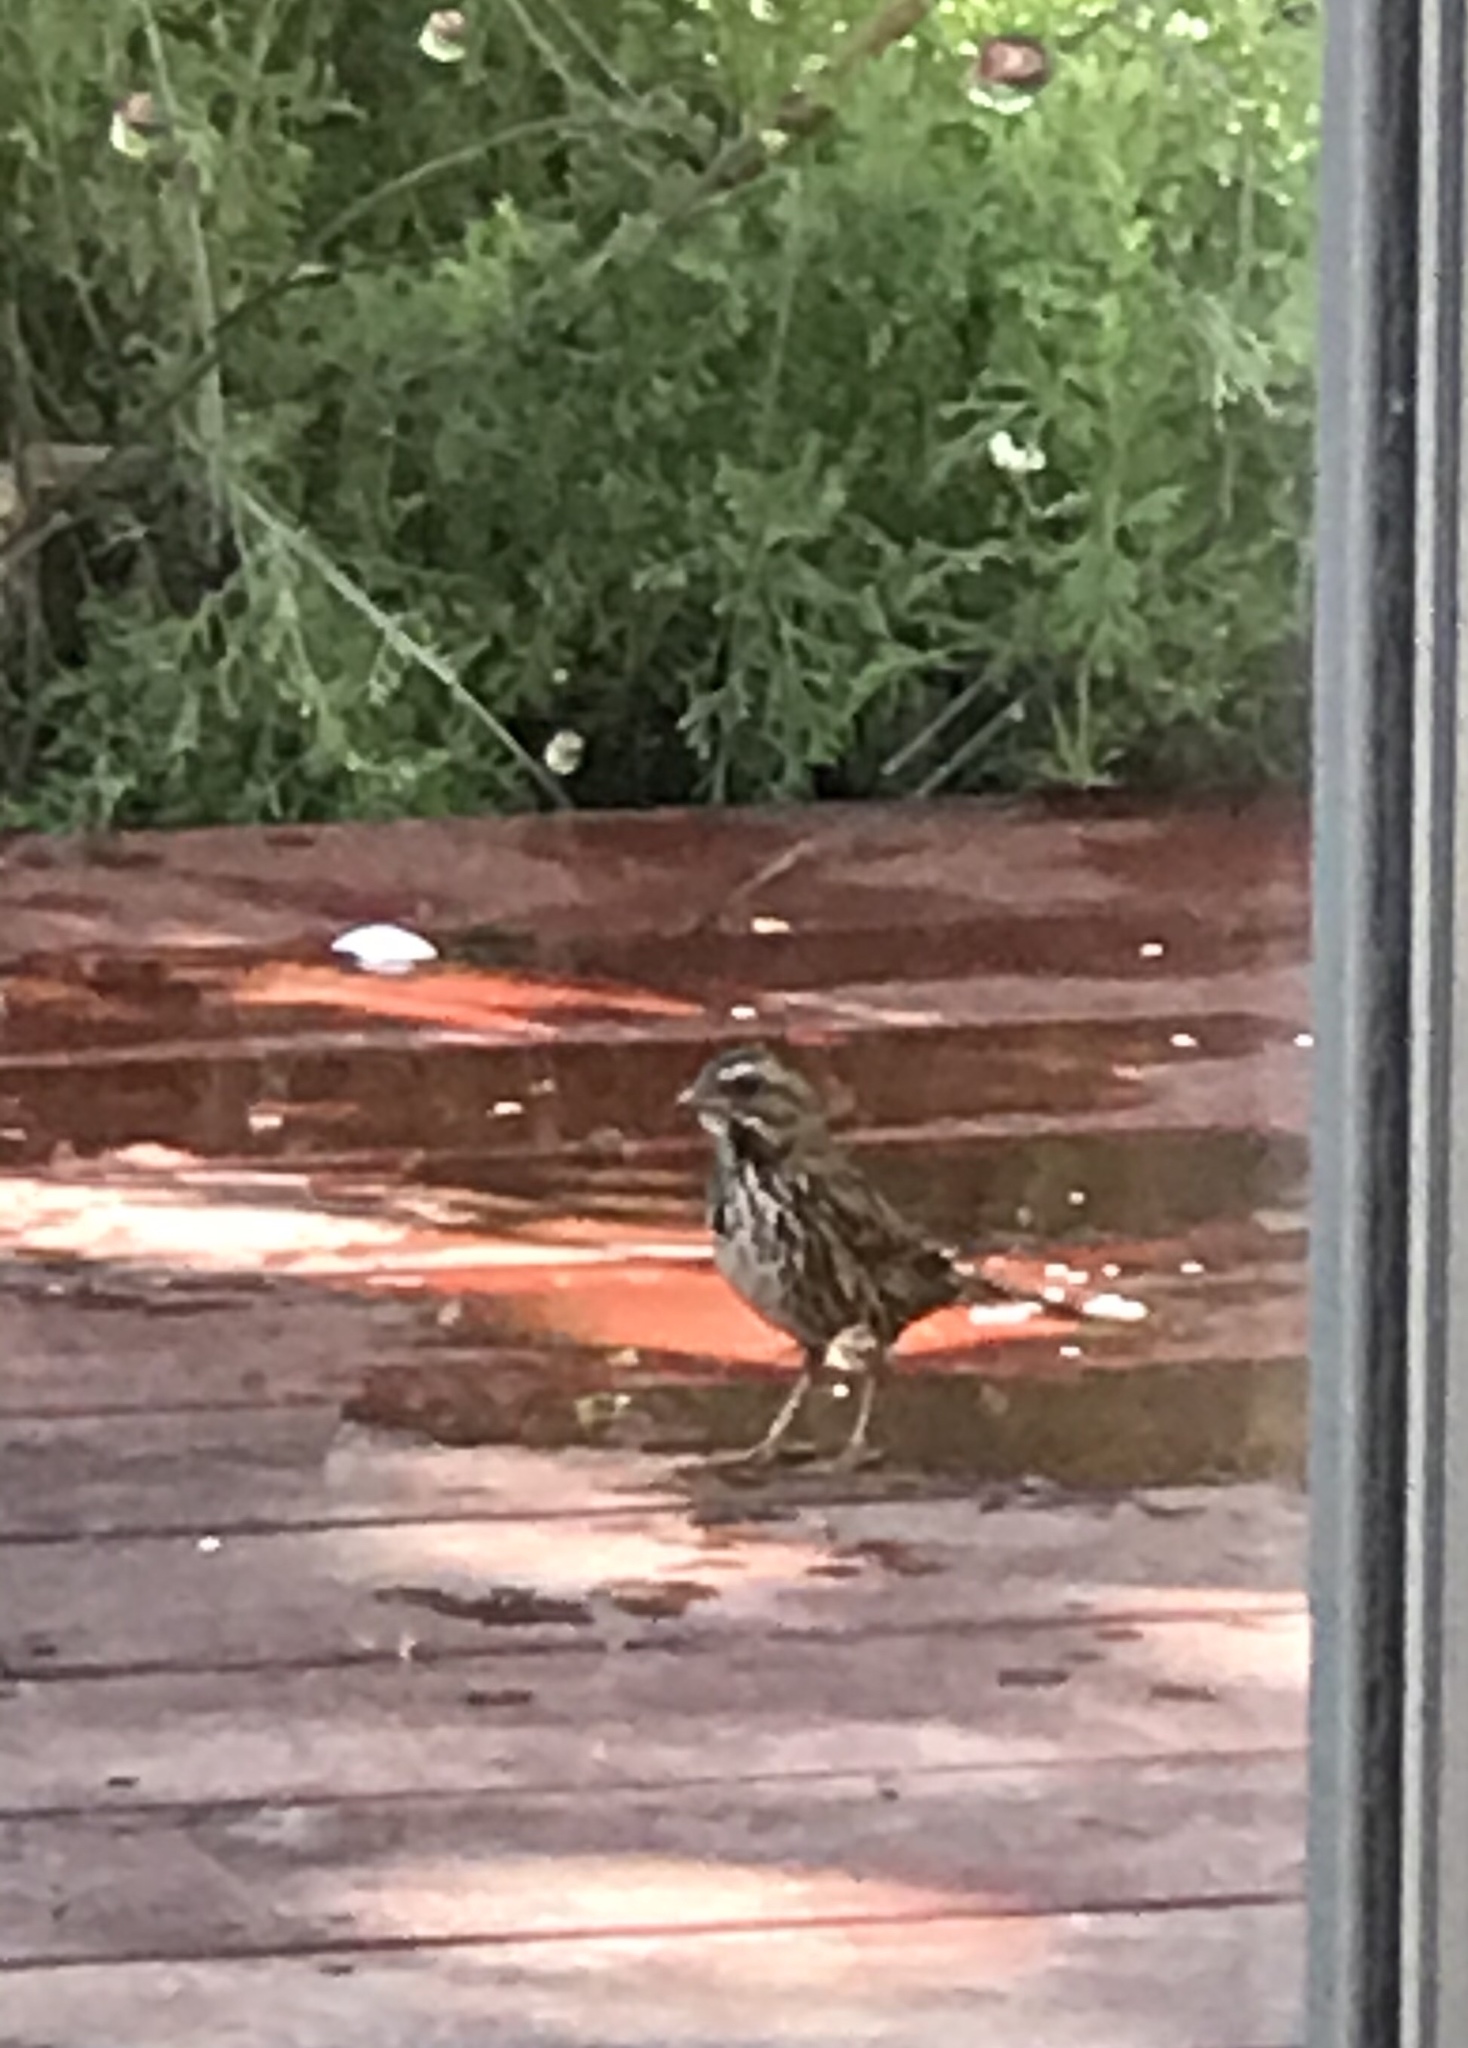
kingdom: Animalia
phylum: Chordata
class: Aves
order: Passeriformes
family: Passerellidae
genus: Melospiza
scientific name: Melospiza melodia
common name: Song sparrow
